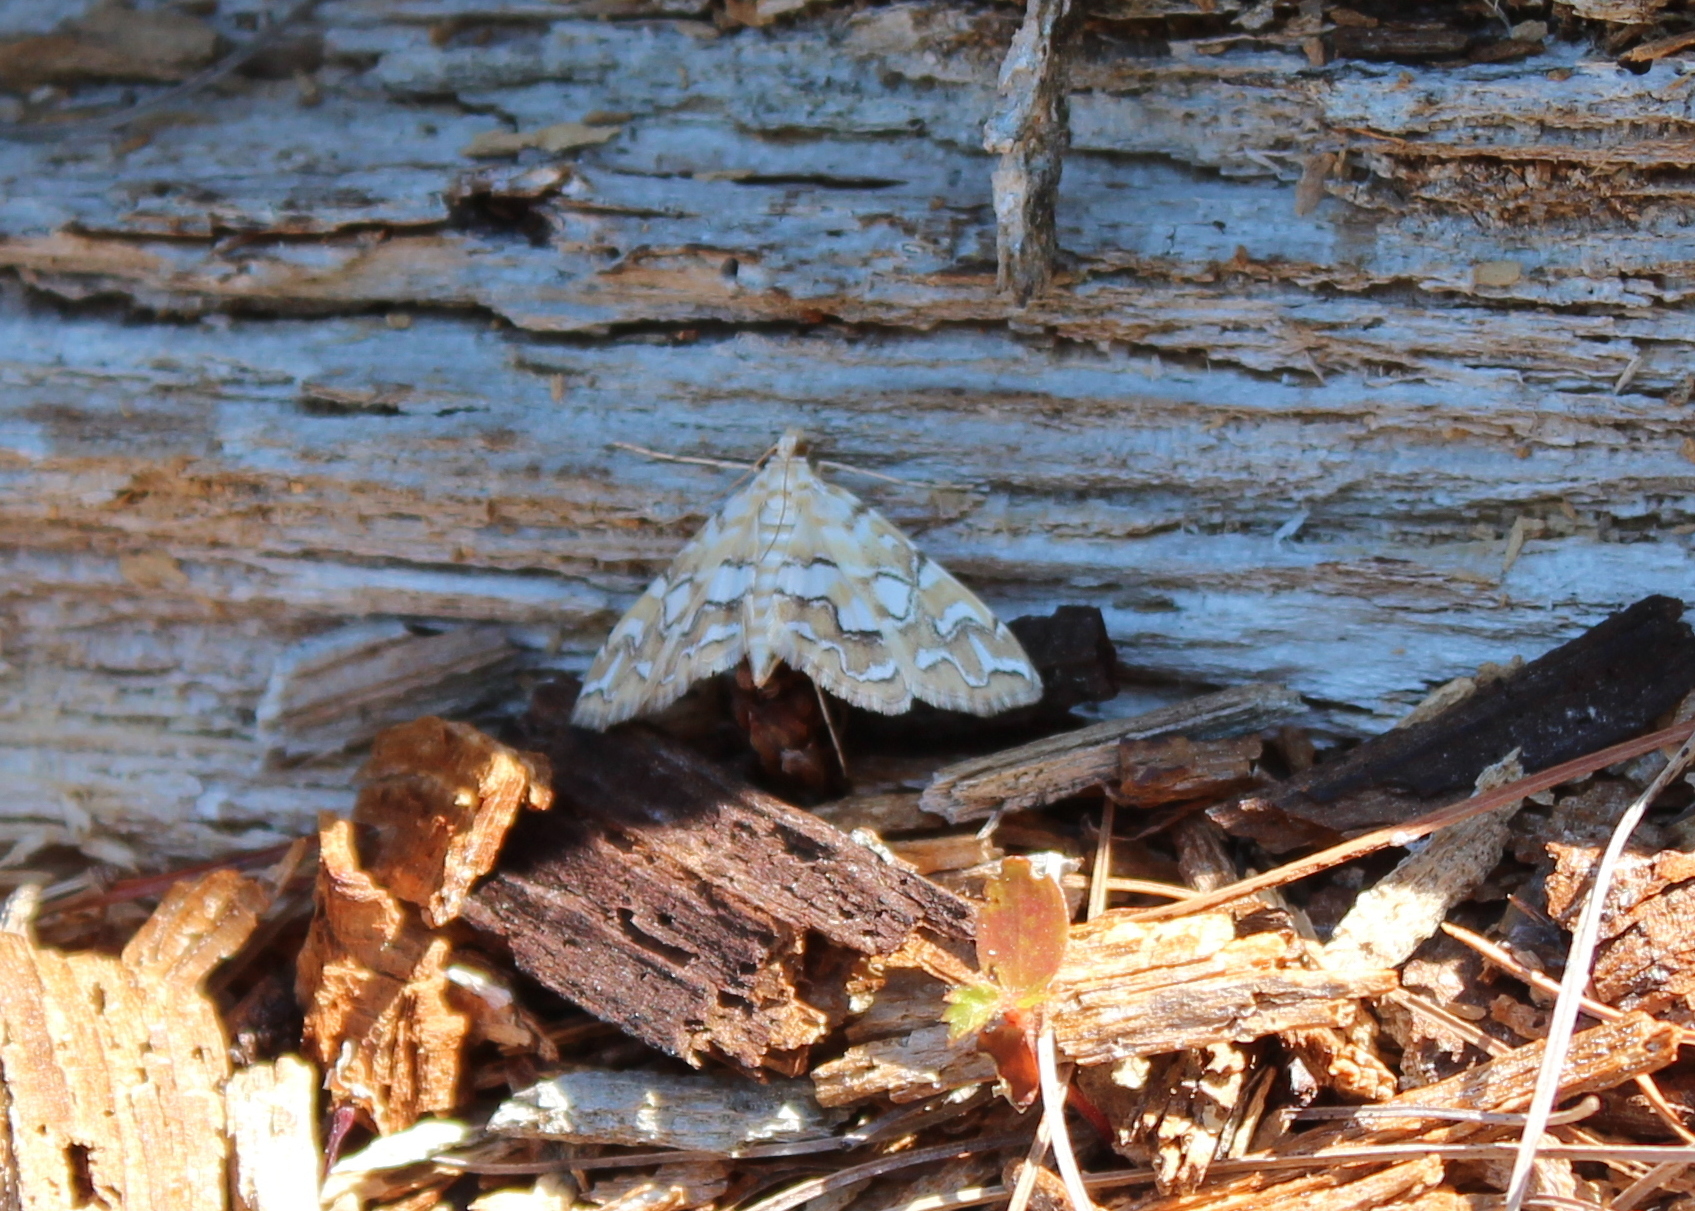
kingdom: Animalia
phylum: Arthropoda
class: Insecta
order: Lepidoptera
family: Crambidae
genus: Elophila
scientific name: Elophila icciusalis
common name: Pondside pyralid moth
